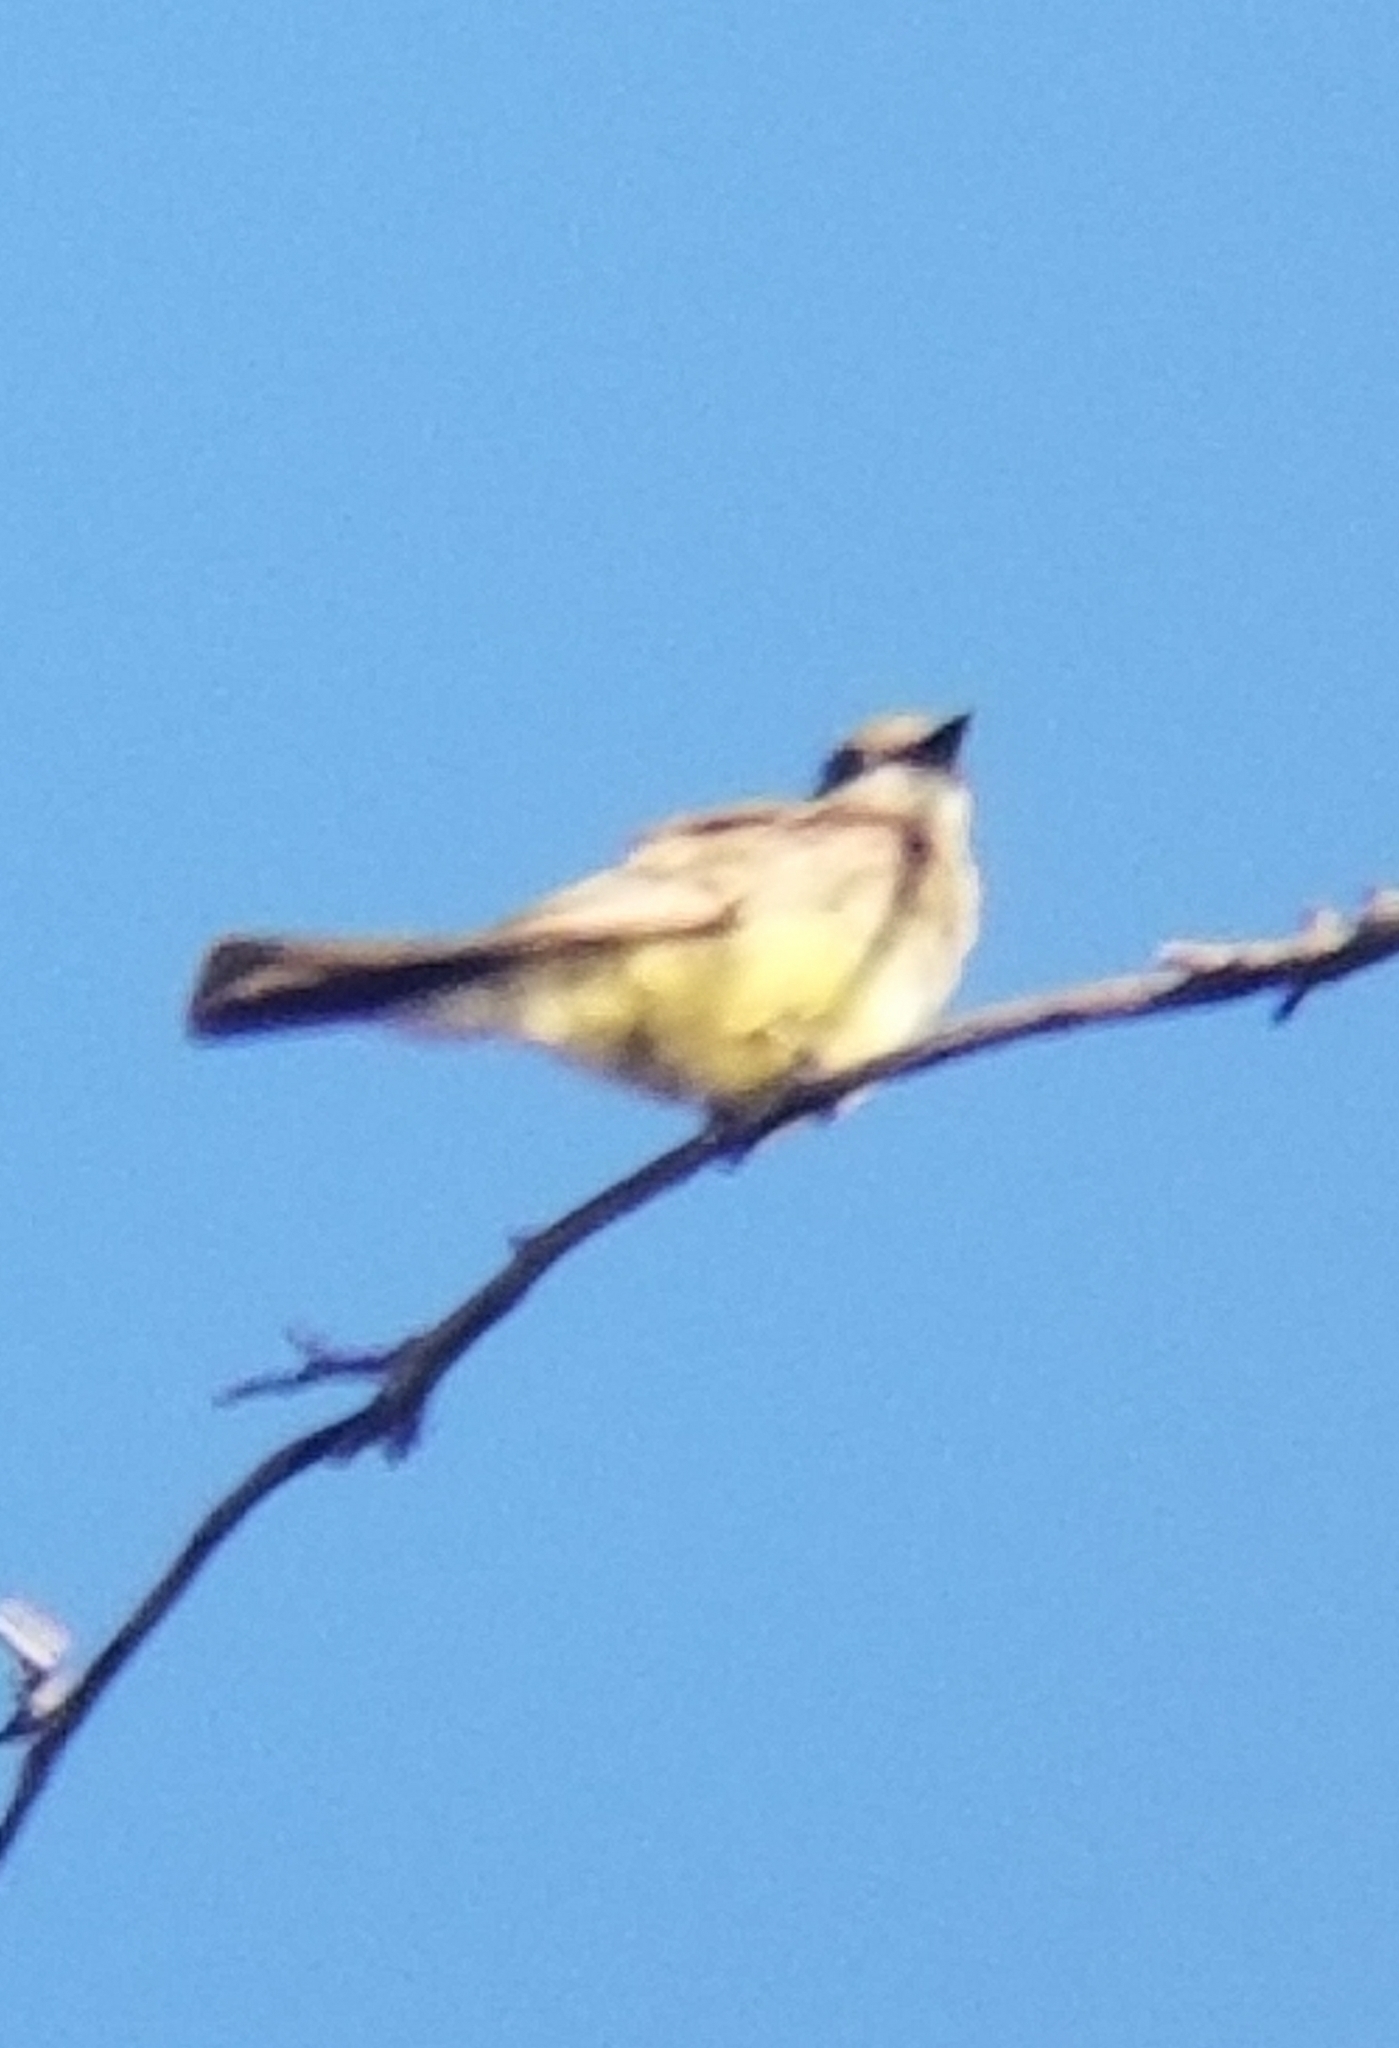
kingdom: Animalia
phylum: Chordata
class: Aves
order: Passeriformes
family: Tyrannidae
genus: Tyrannus
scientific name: Tyrannus vociferans
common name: Cassin's kingbird
